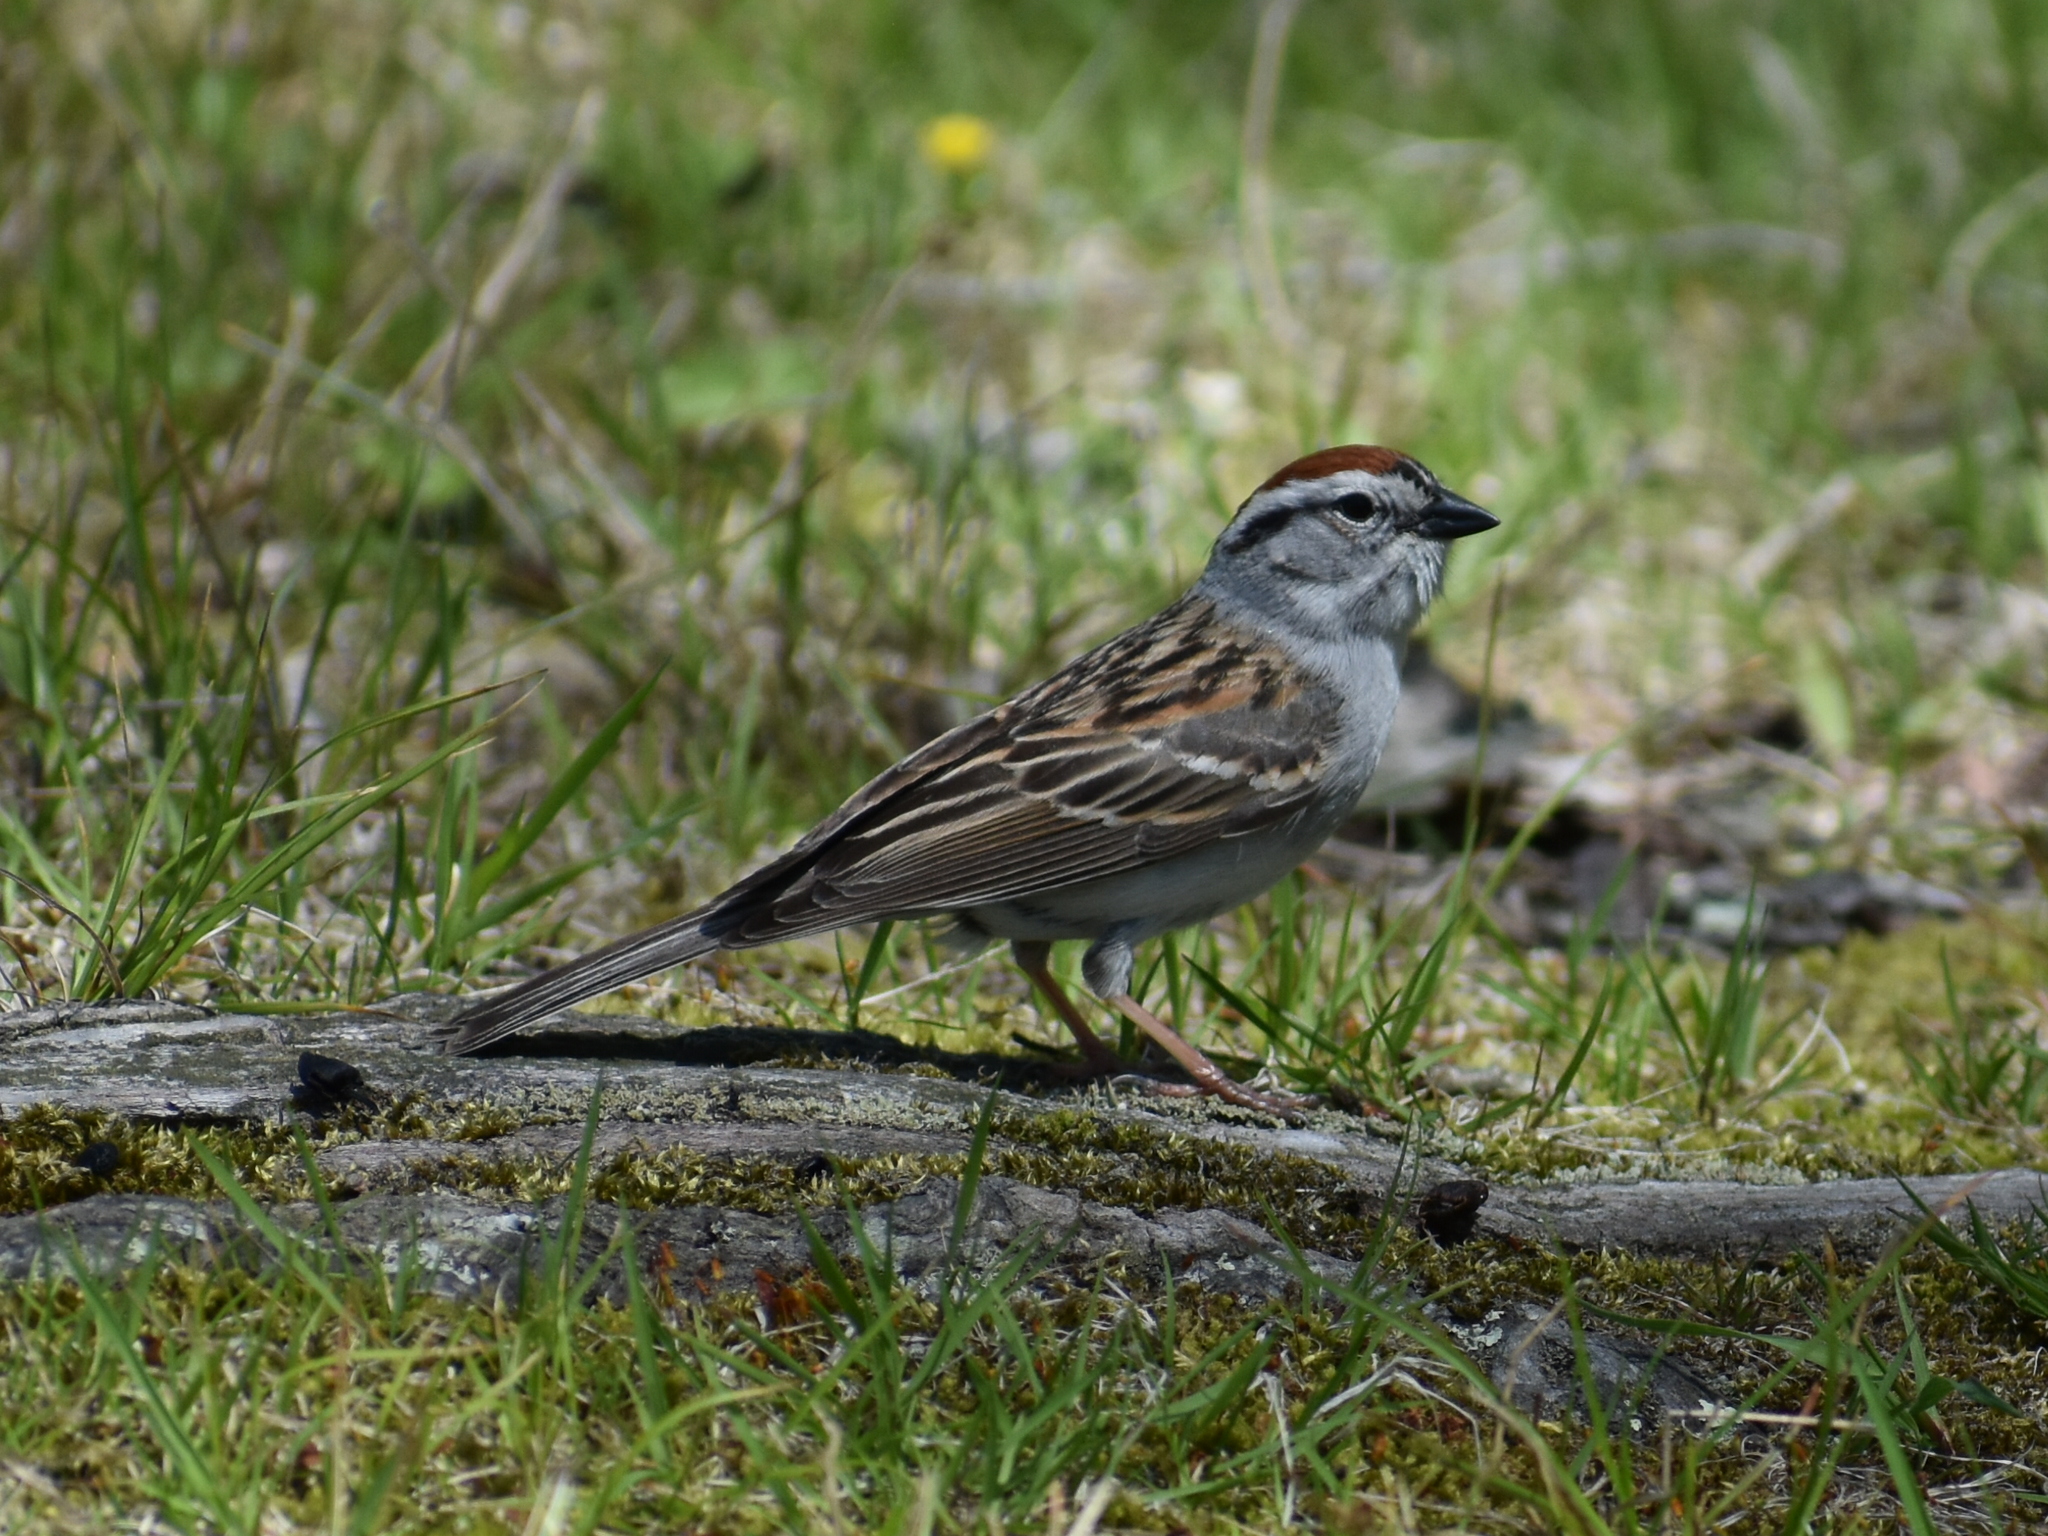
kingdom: Animalia
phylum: Chordata
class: Aves
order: Passeriformes
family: Passerellidae
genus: Spizella
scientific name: Spizella passerina
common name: Chipping sparrow
